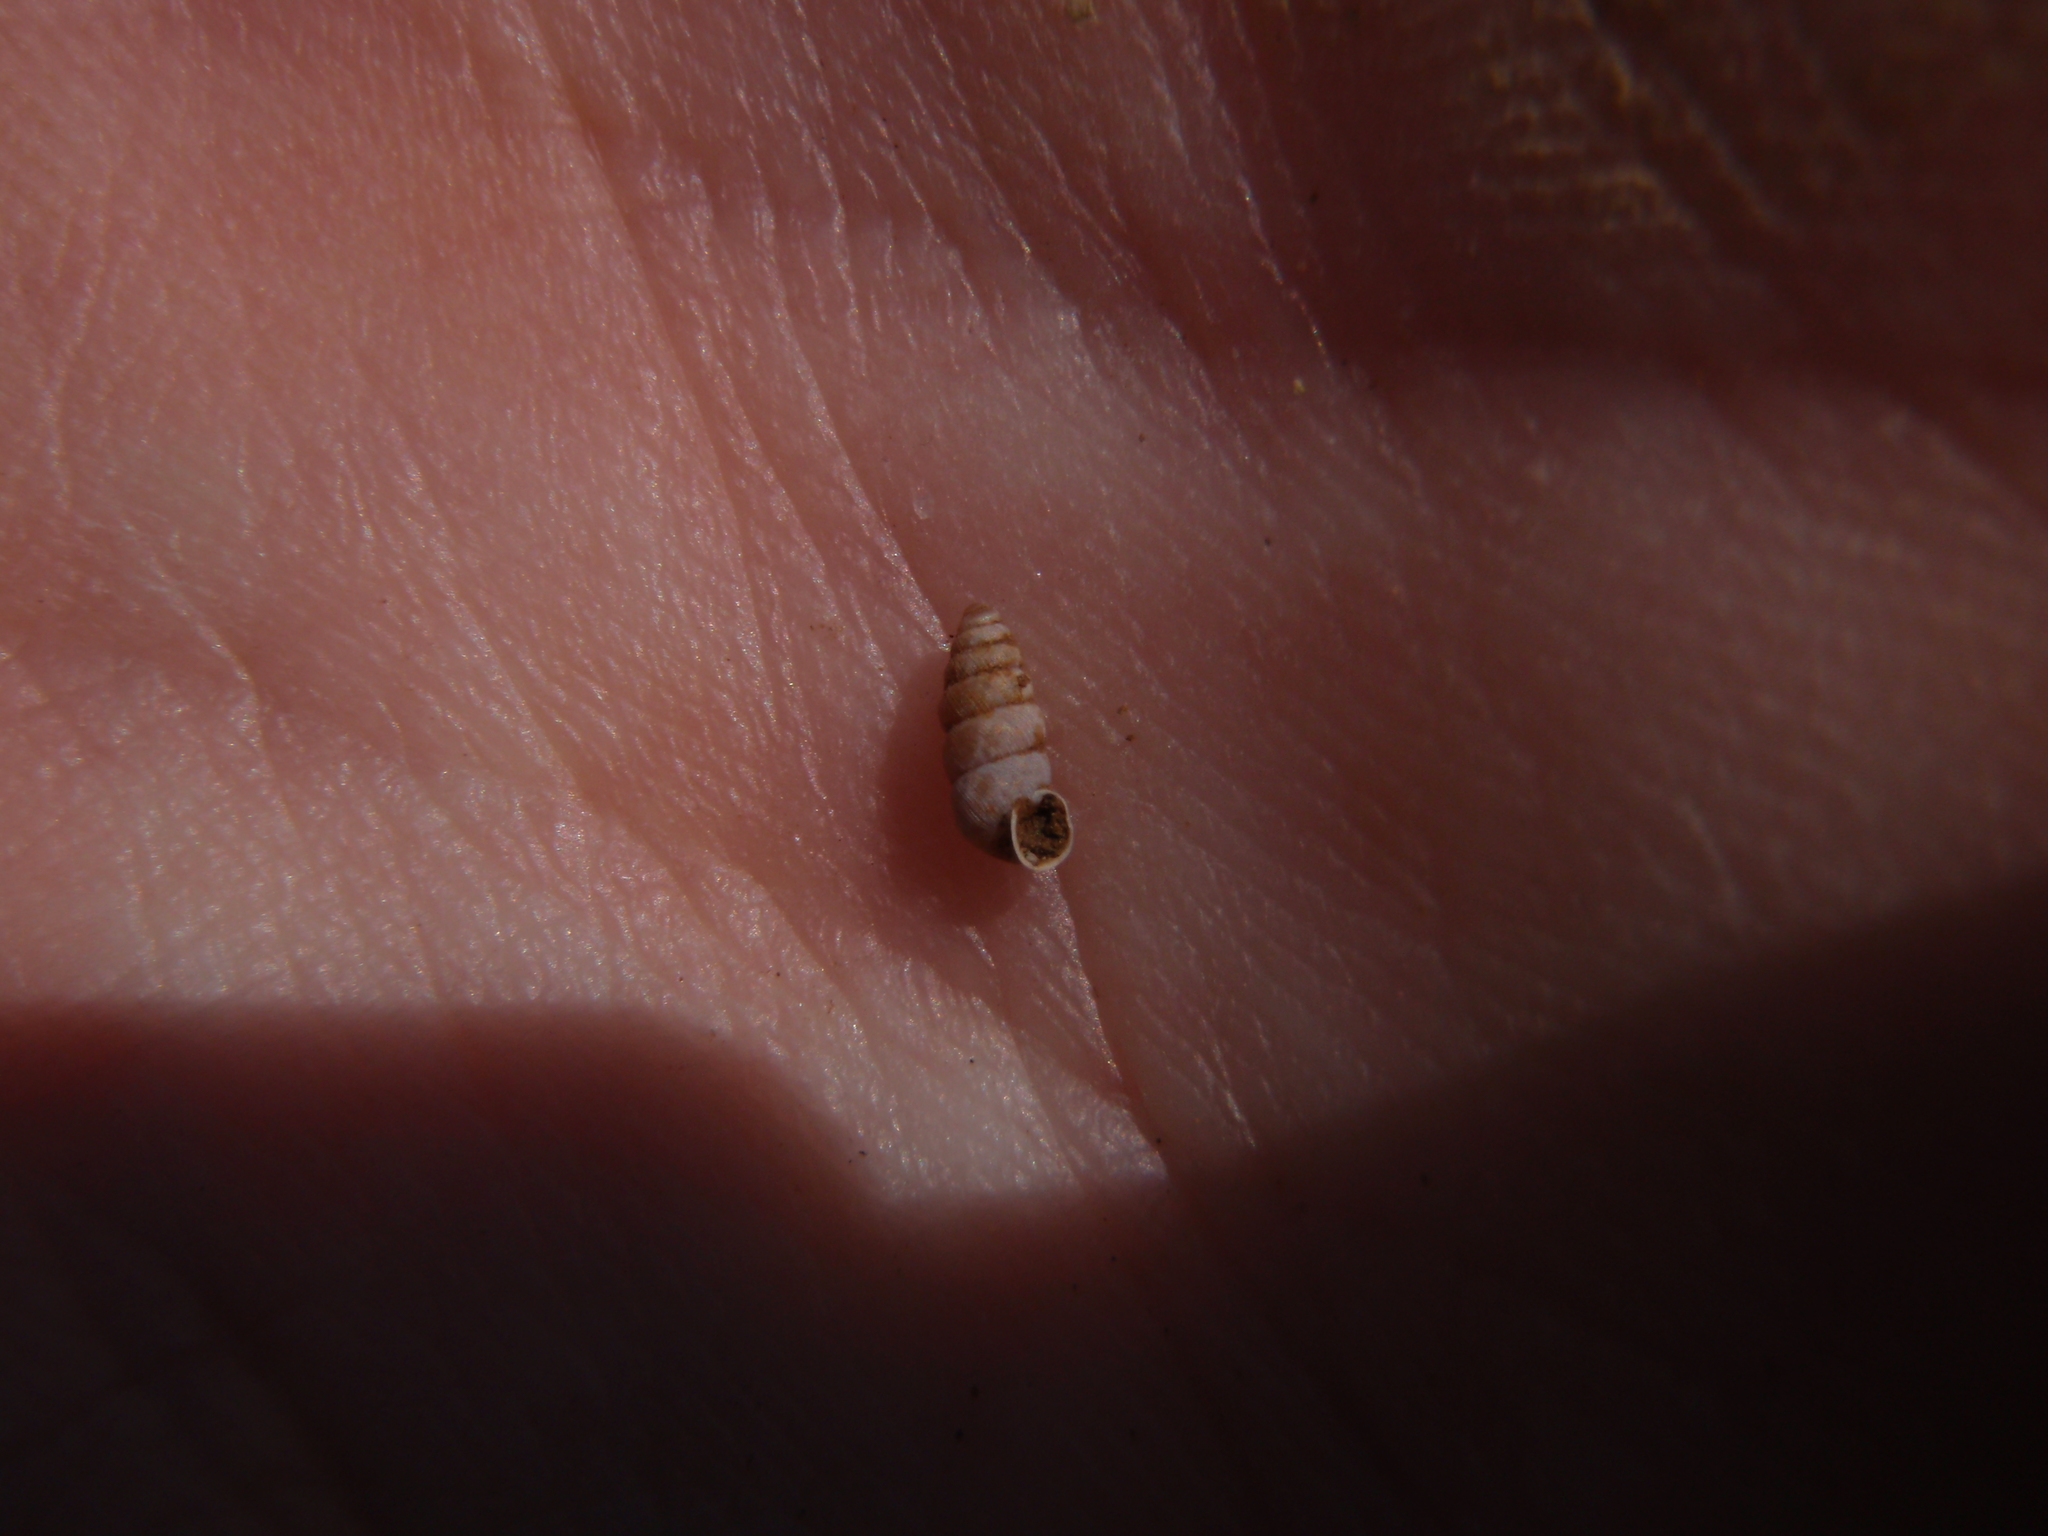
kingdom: Animalia
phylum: Mollusca
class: Gastropoda
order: Stylommatophora
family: Chondrinidae
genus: Granopupa
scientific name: Granopupa granum
